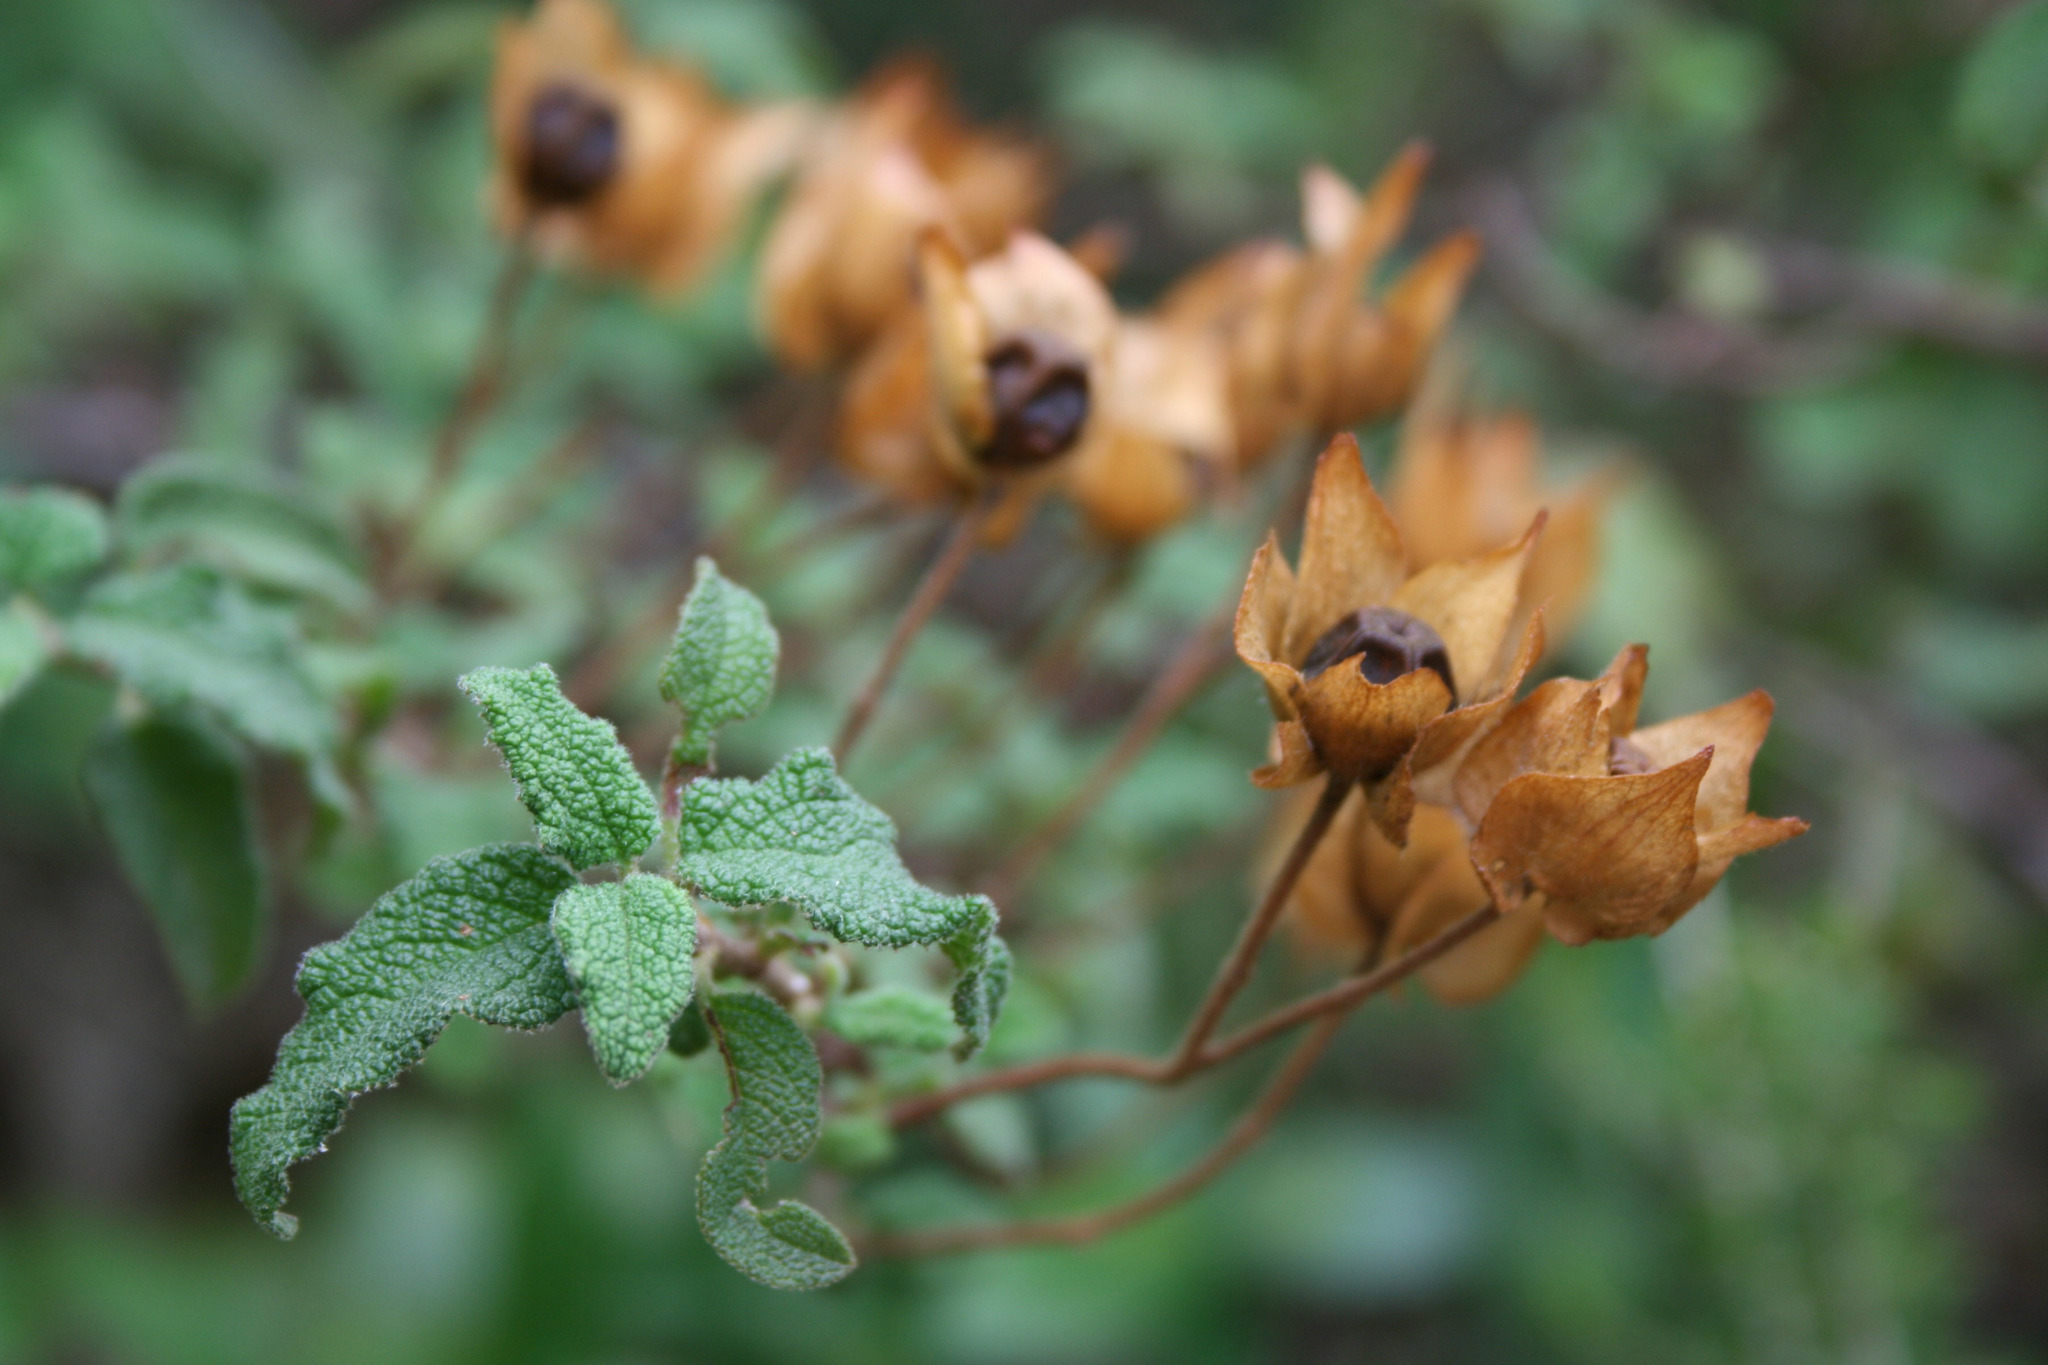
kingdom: Plantae
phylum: Tracheophyta
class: Magnoliopsida
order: Malvales
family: Cistaceae
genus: Cistus
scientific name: Cistus salviifolius
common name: Salvia cistus
